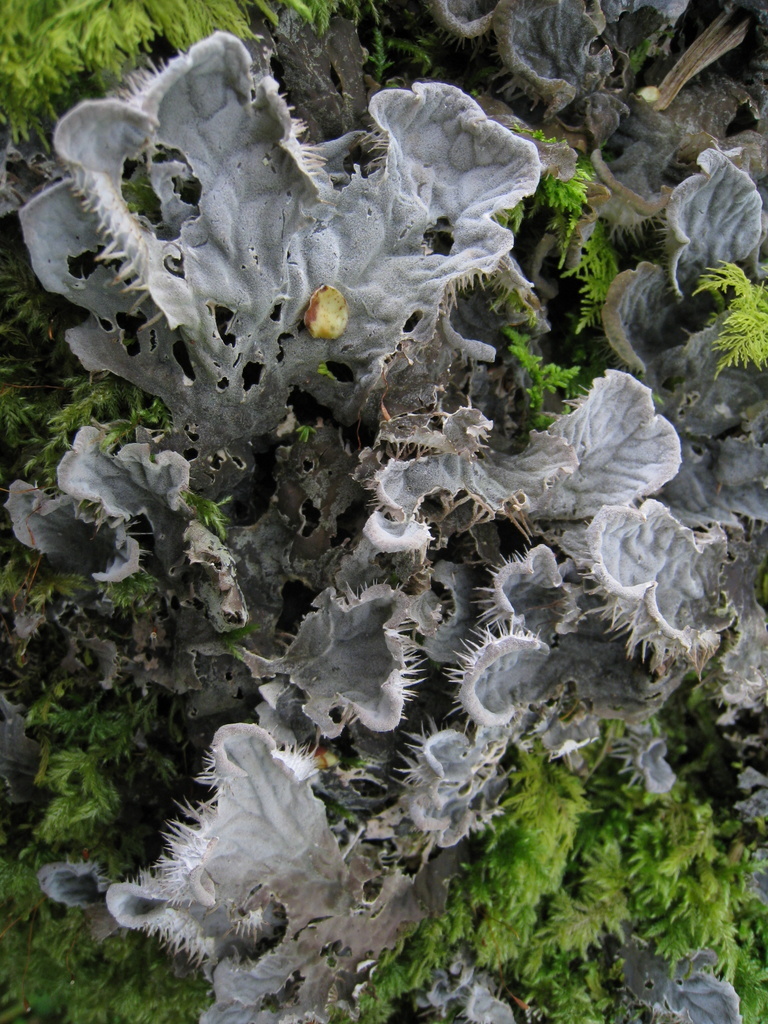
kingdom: Fungi
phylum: Ascomycota
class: Lecanoromycetes
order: Peltigerales
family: Peltigeraceae
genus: Peltigera
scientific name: Peltigera membranacea
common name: Membranous pelt lichen
